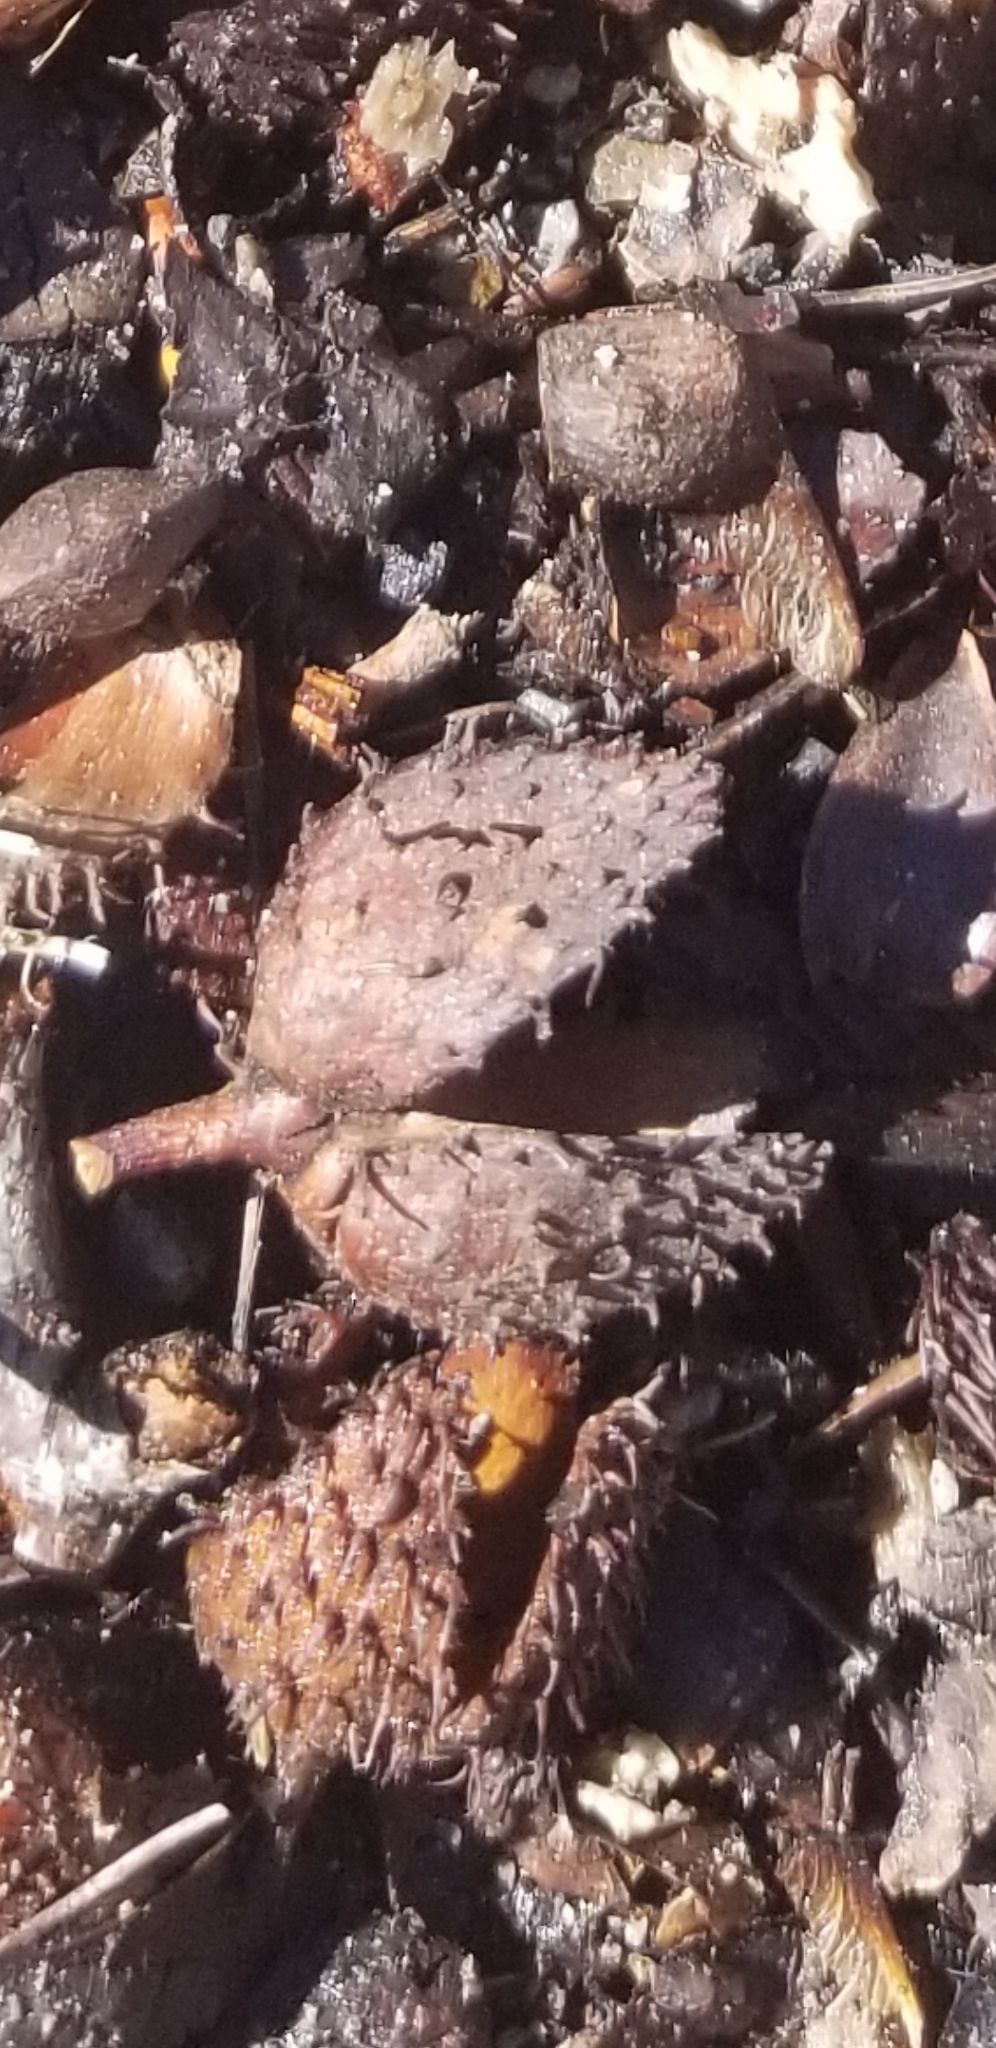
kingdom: Plantae
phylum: Tracheophyta
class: Magnoliopsida
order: Fagales
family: Fagaceae
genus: Fagus
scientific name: Fagus grandifolia
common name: American beech
